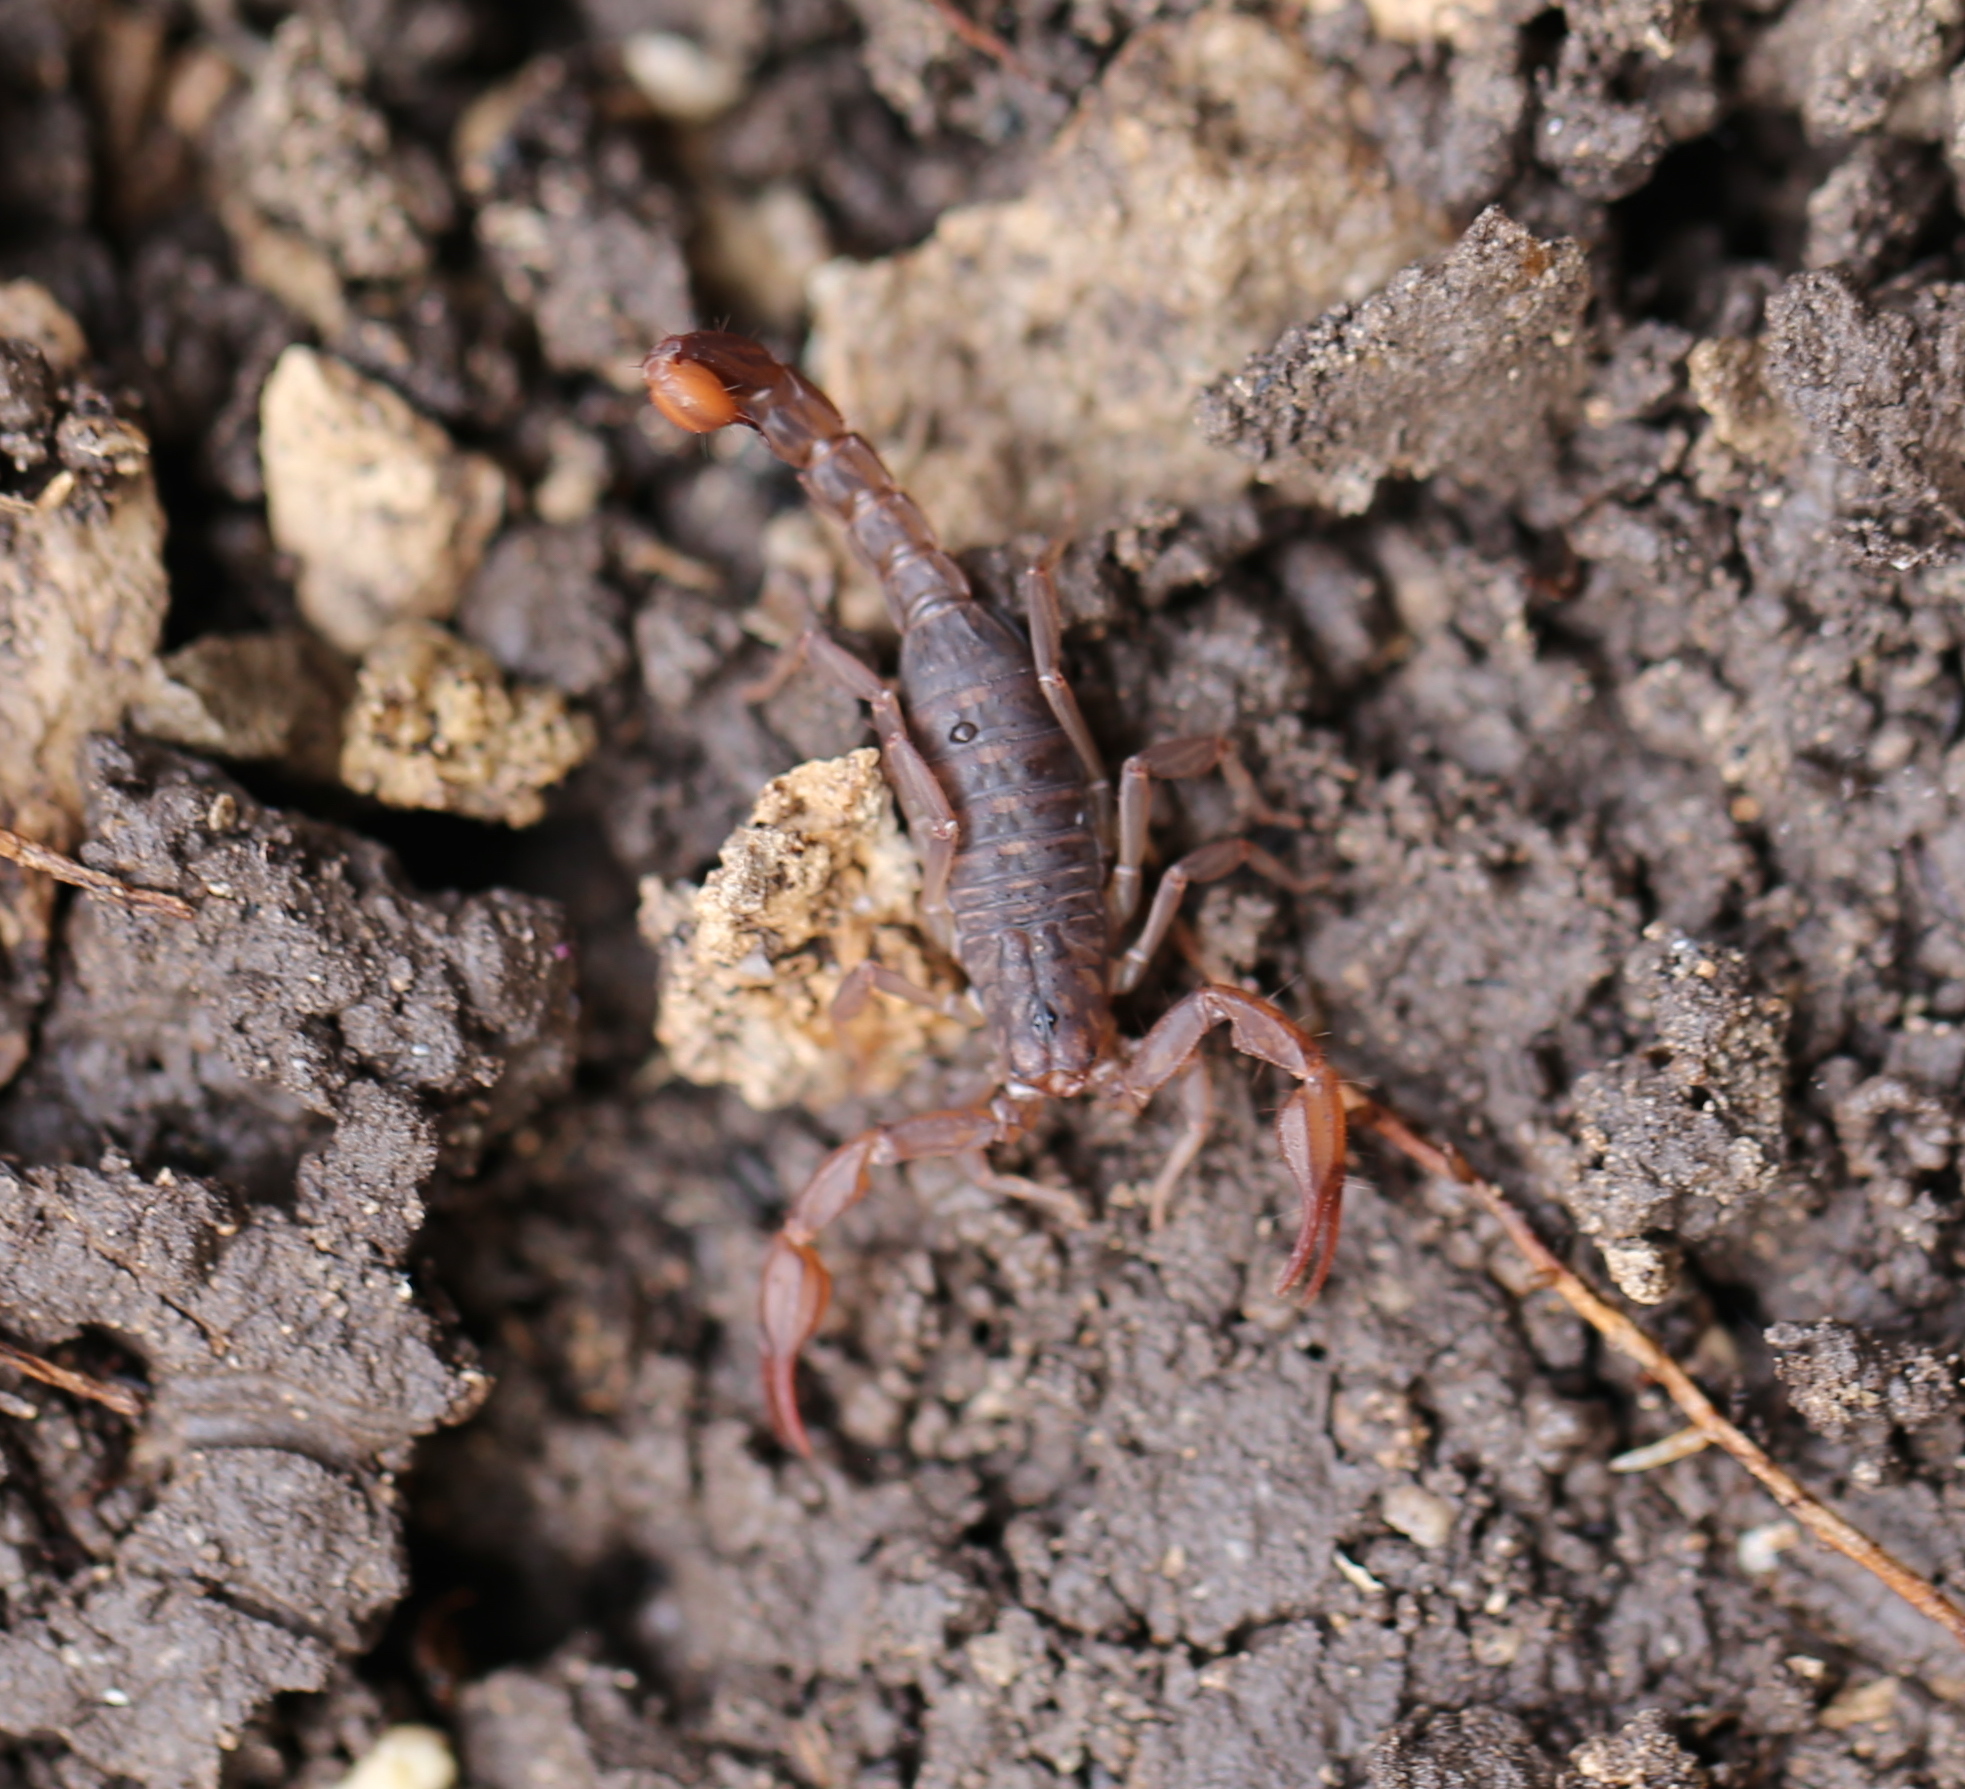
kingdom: Animalia
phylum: Arthropoda
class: Arachnida
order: Scorpiones
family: Vaejovidae
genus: Pseudouroctonus
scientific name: Pseudouroctonus reddelli
